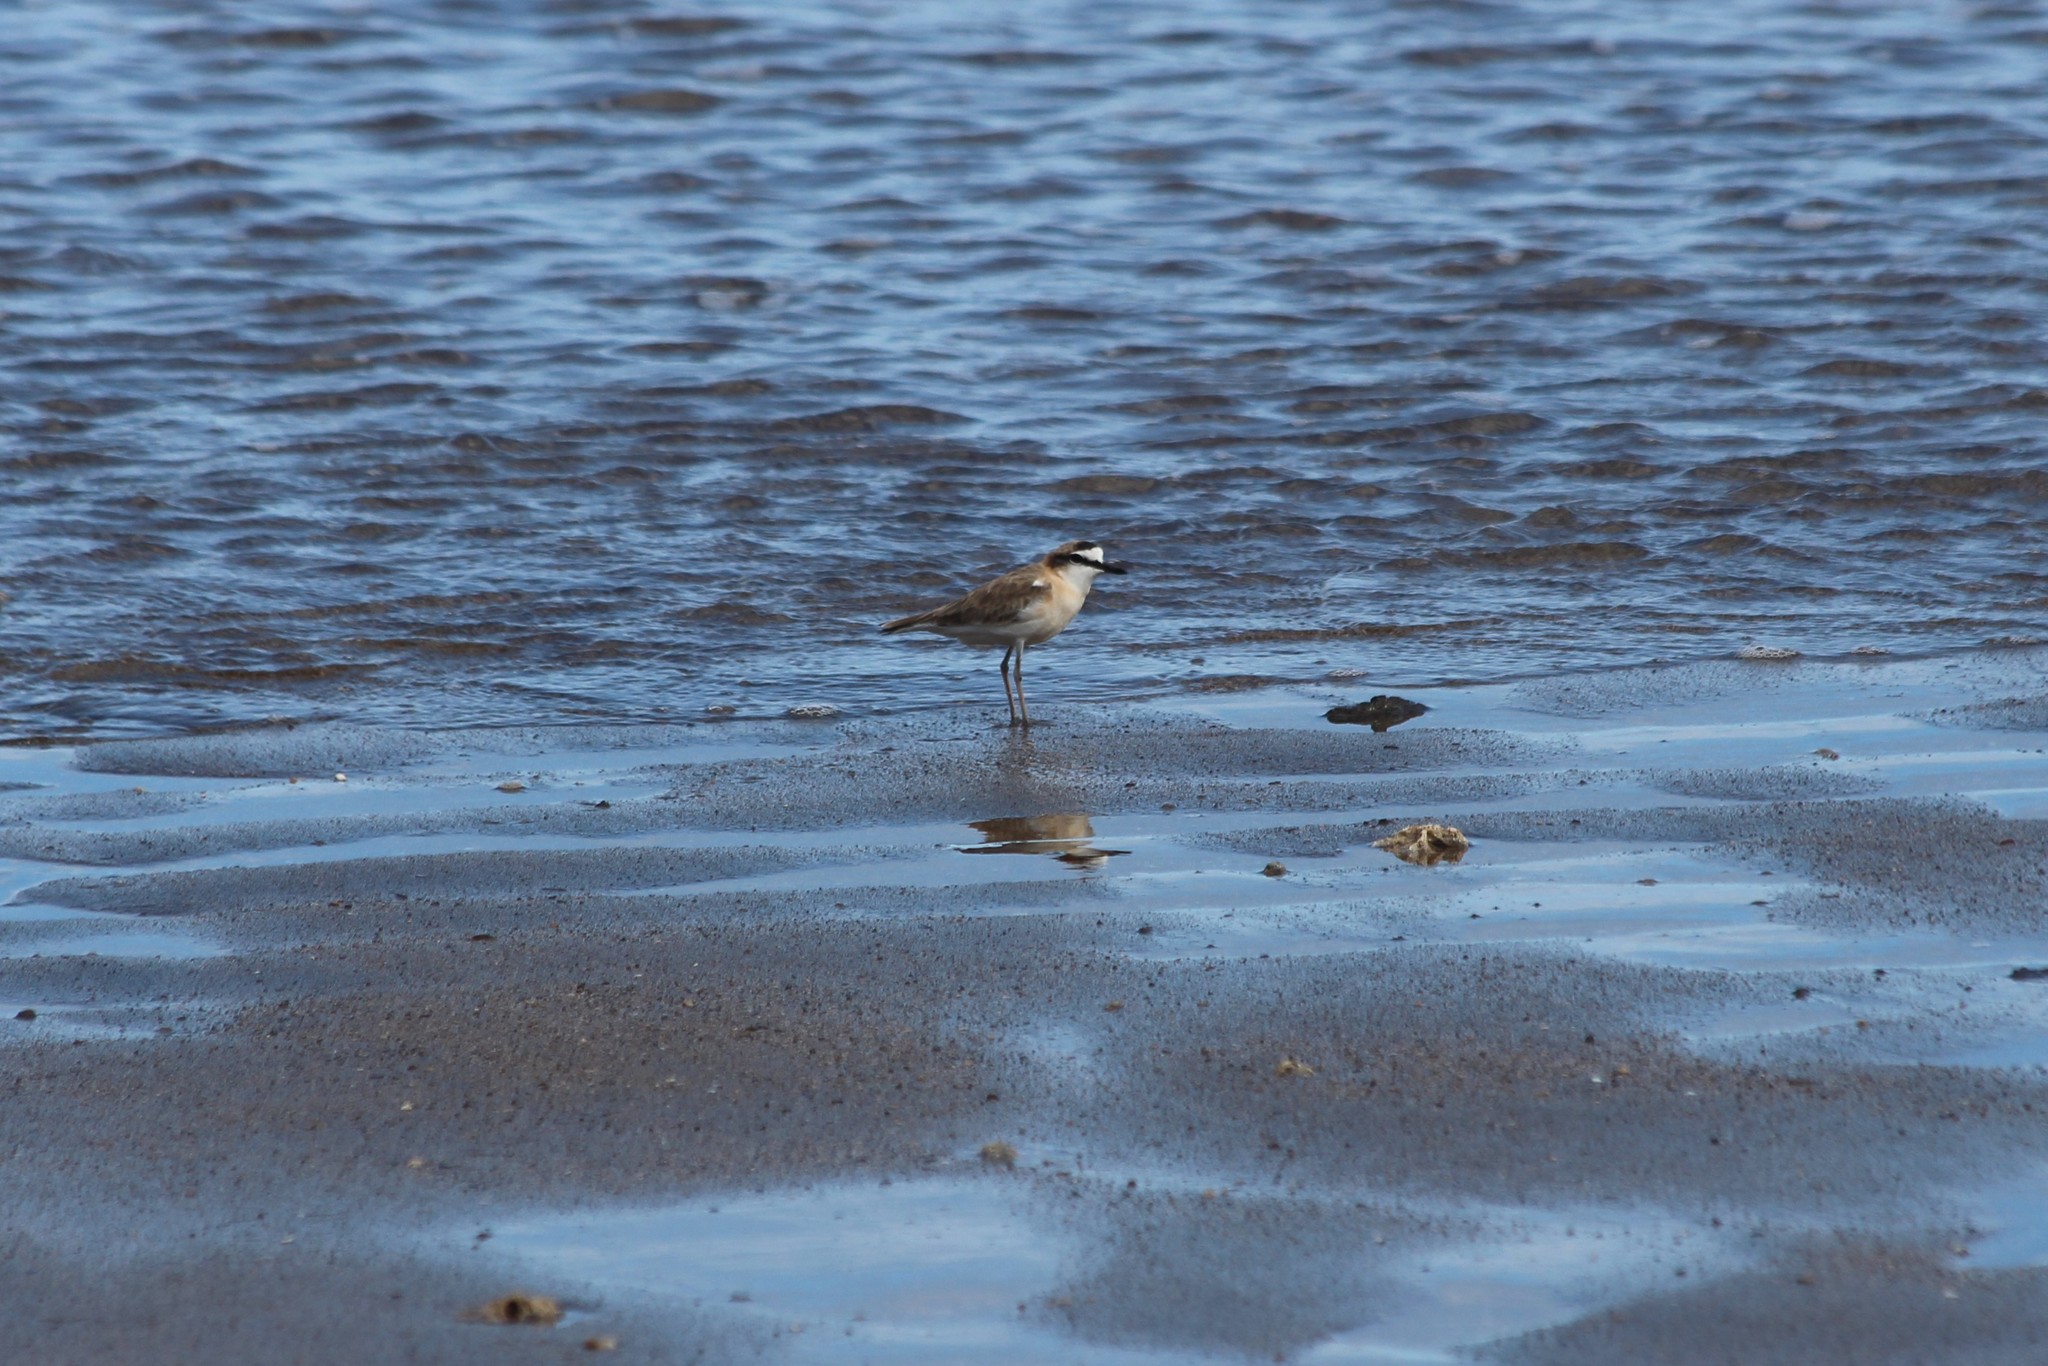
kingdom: Animalia
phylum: Chordata
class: Aves
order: Charadriiformes
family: Charadriidae
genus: Anarhynchus
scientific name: Anarhynchus
